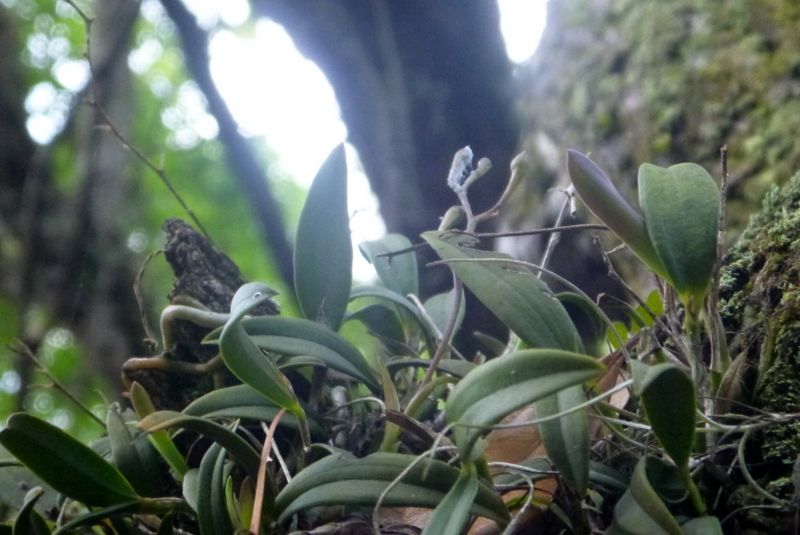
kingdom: Plantae
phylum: Tracheophyta
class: Liliopsida
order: Asparagales
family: Orchidaceae
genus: Epidendrum
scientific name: Epidendrum conopseum
